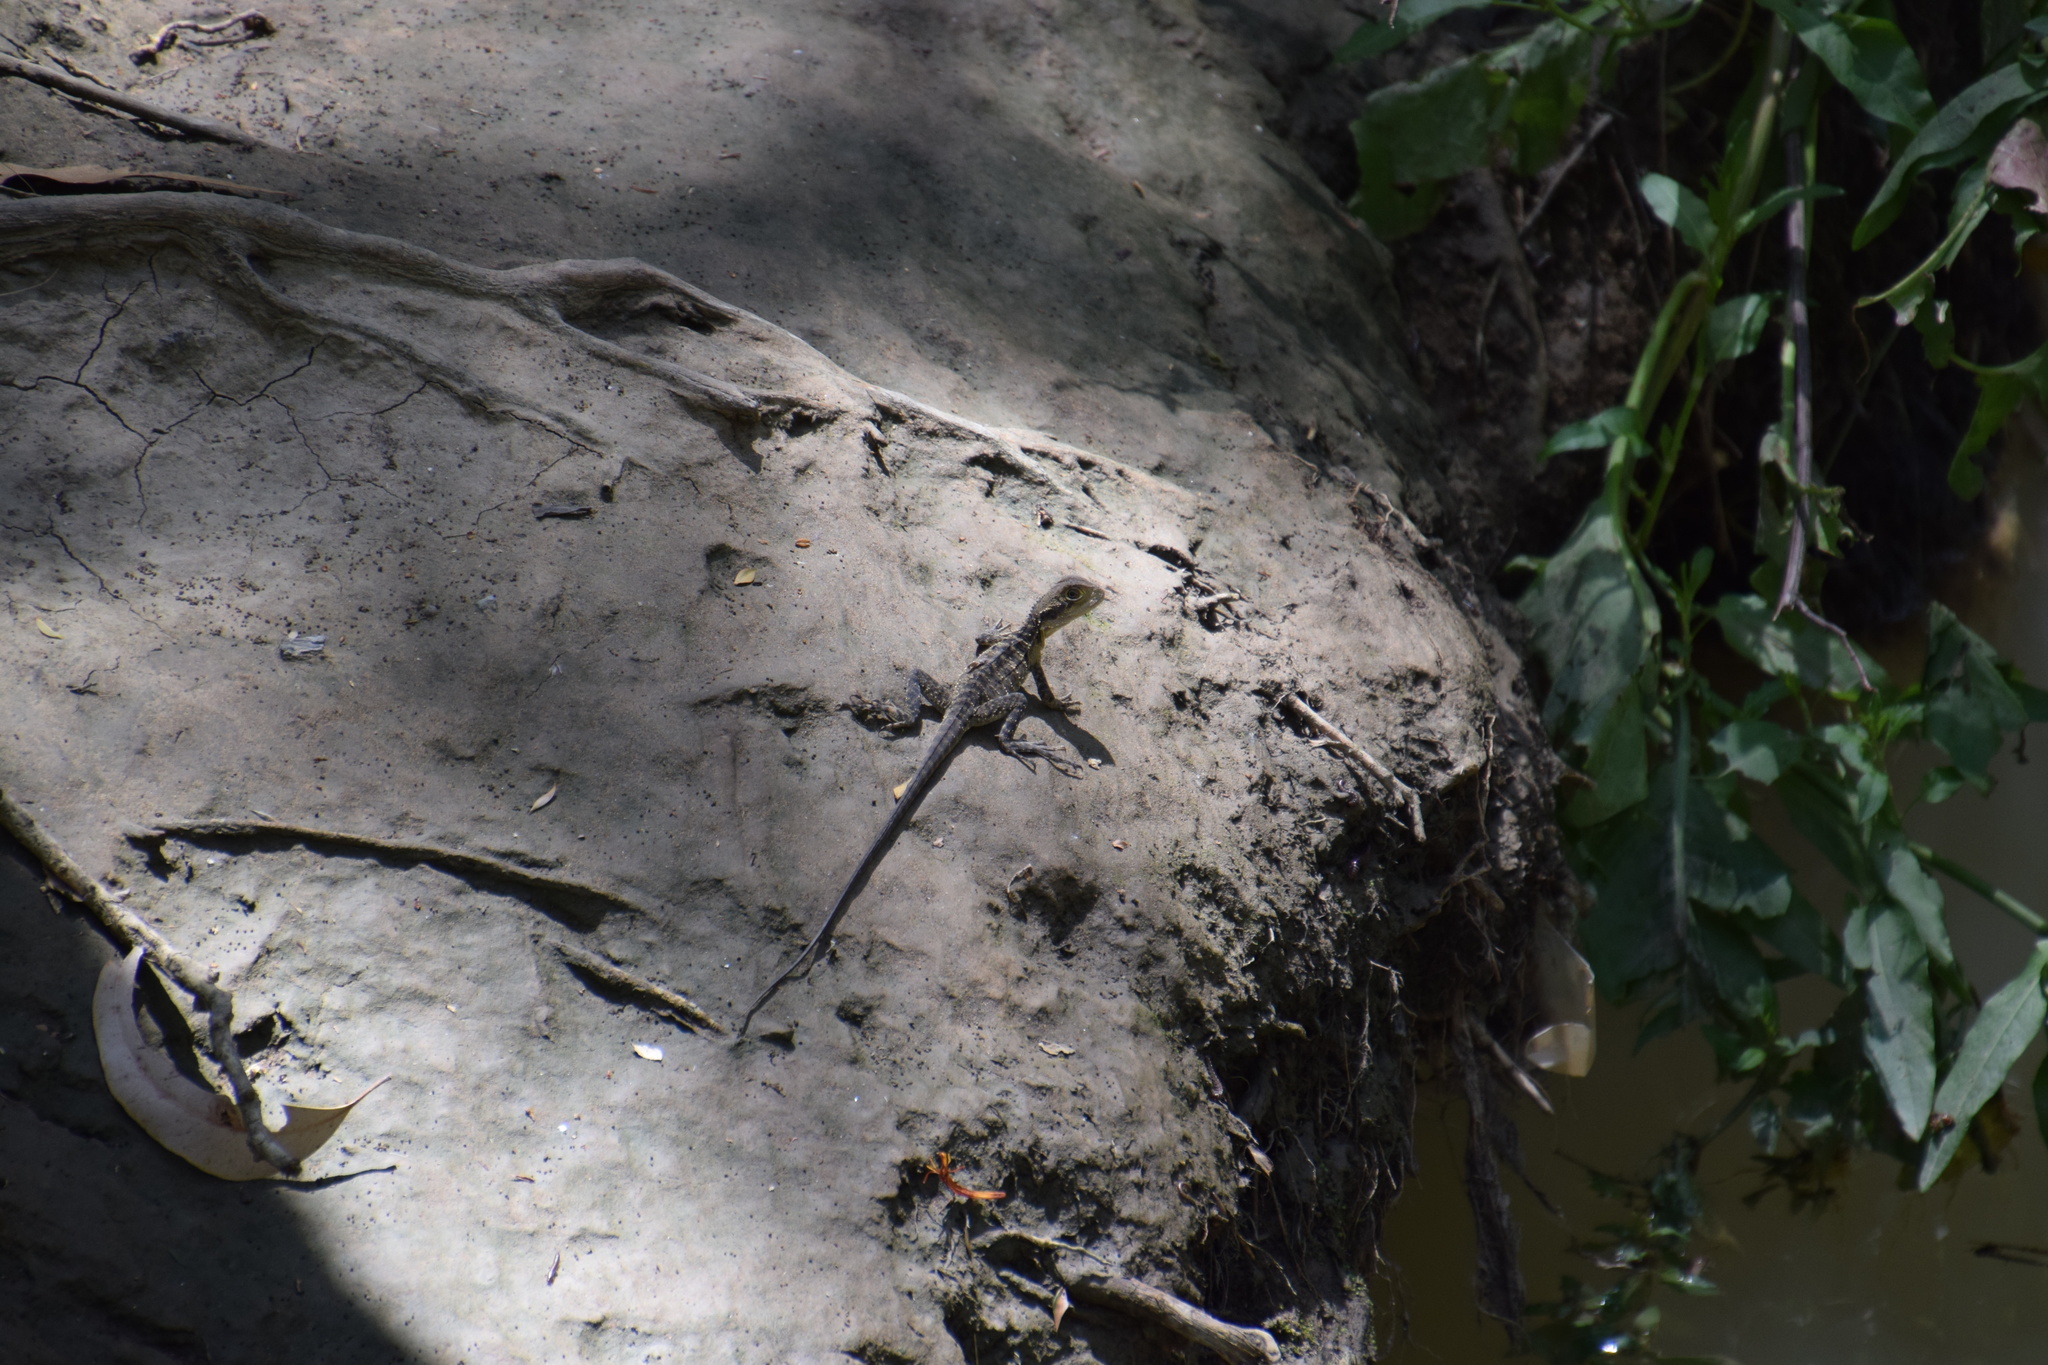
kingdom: Animalia
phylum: Chordata
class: Squamata
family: Agamidae
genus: Intellagama
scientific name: Intellagama lesueurii
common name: Eastern water dragon
